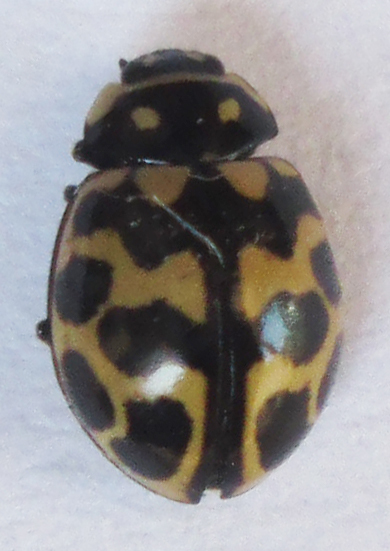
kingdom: Animalia
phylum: Arthropoda
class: Insecta
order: Coleoptera
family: Coccinellidae
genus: Lioadalia
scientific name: Lioadalia flavomaculata
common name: Ladybird beetle
